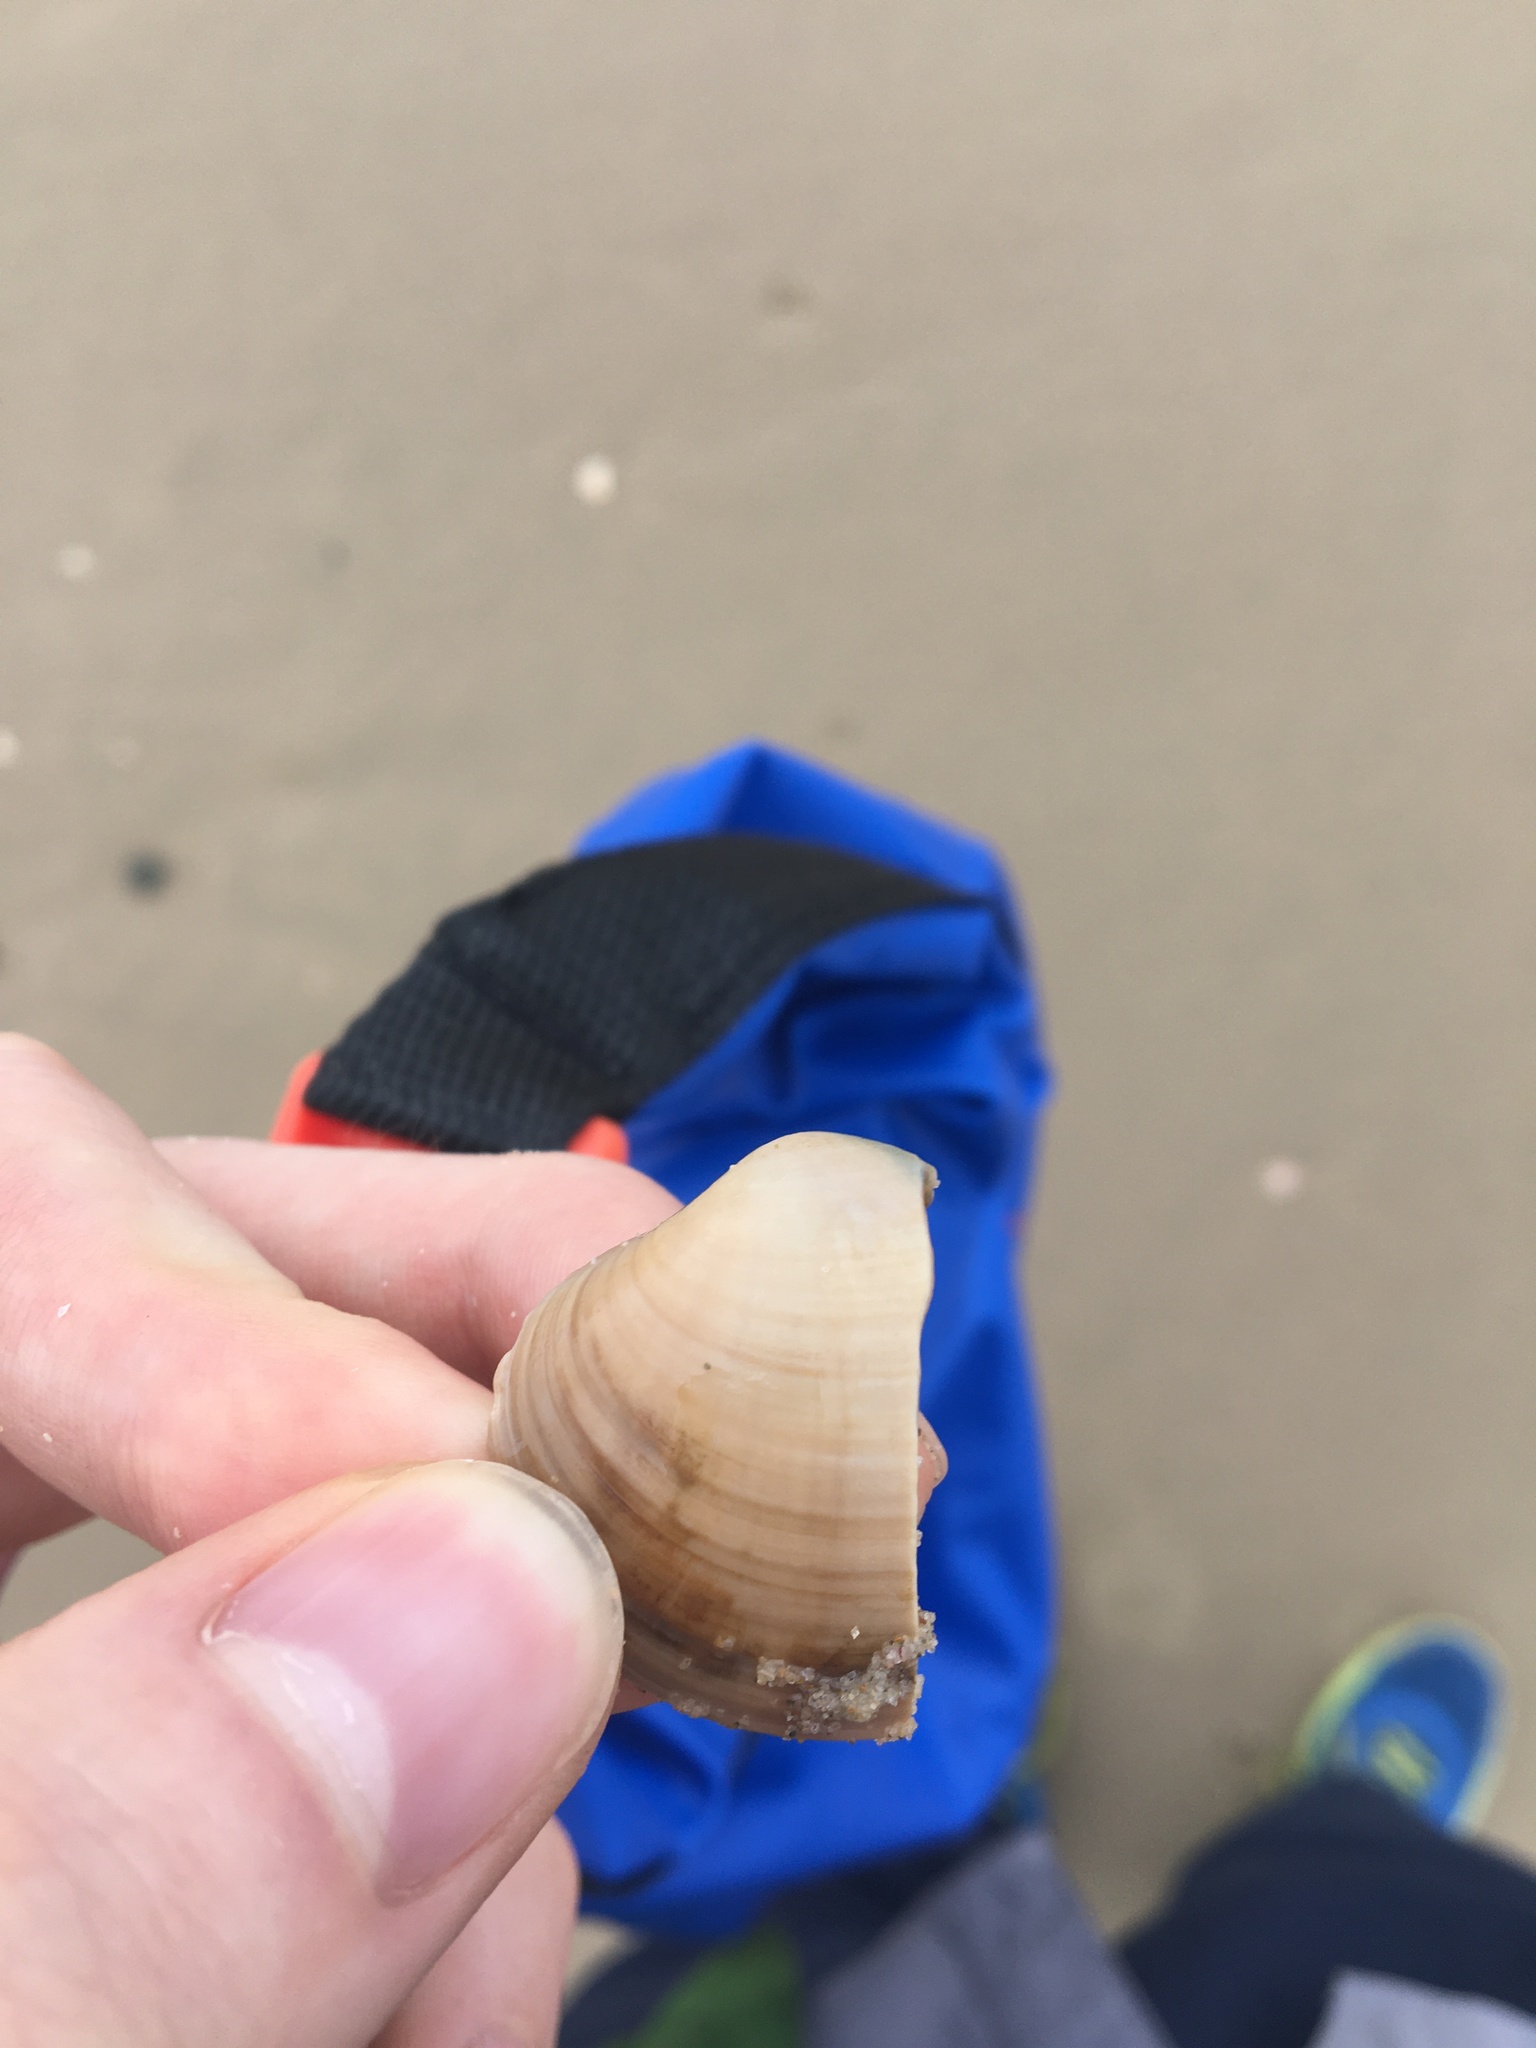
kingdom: Animalia
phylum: Mollusca
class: Bivalvia
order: Venerida
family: Veneridae
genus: Eumarcia
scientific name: Eumarcia fumigata
